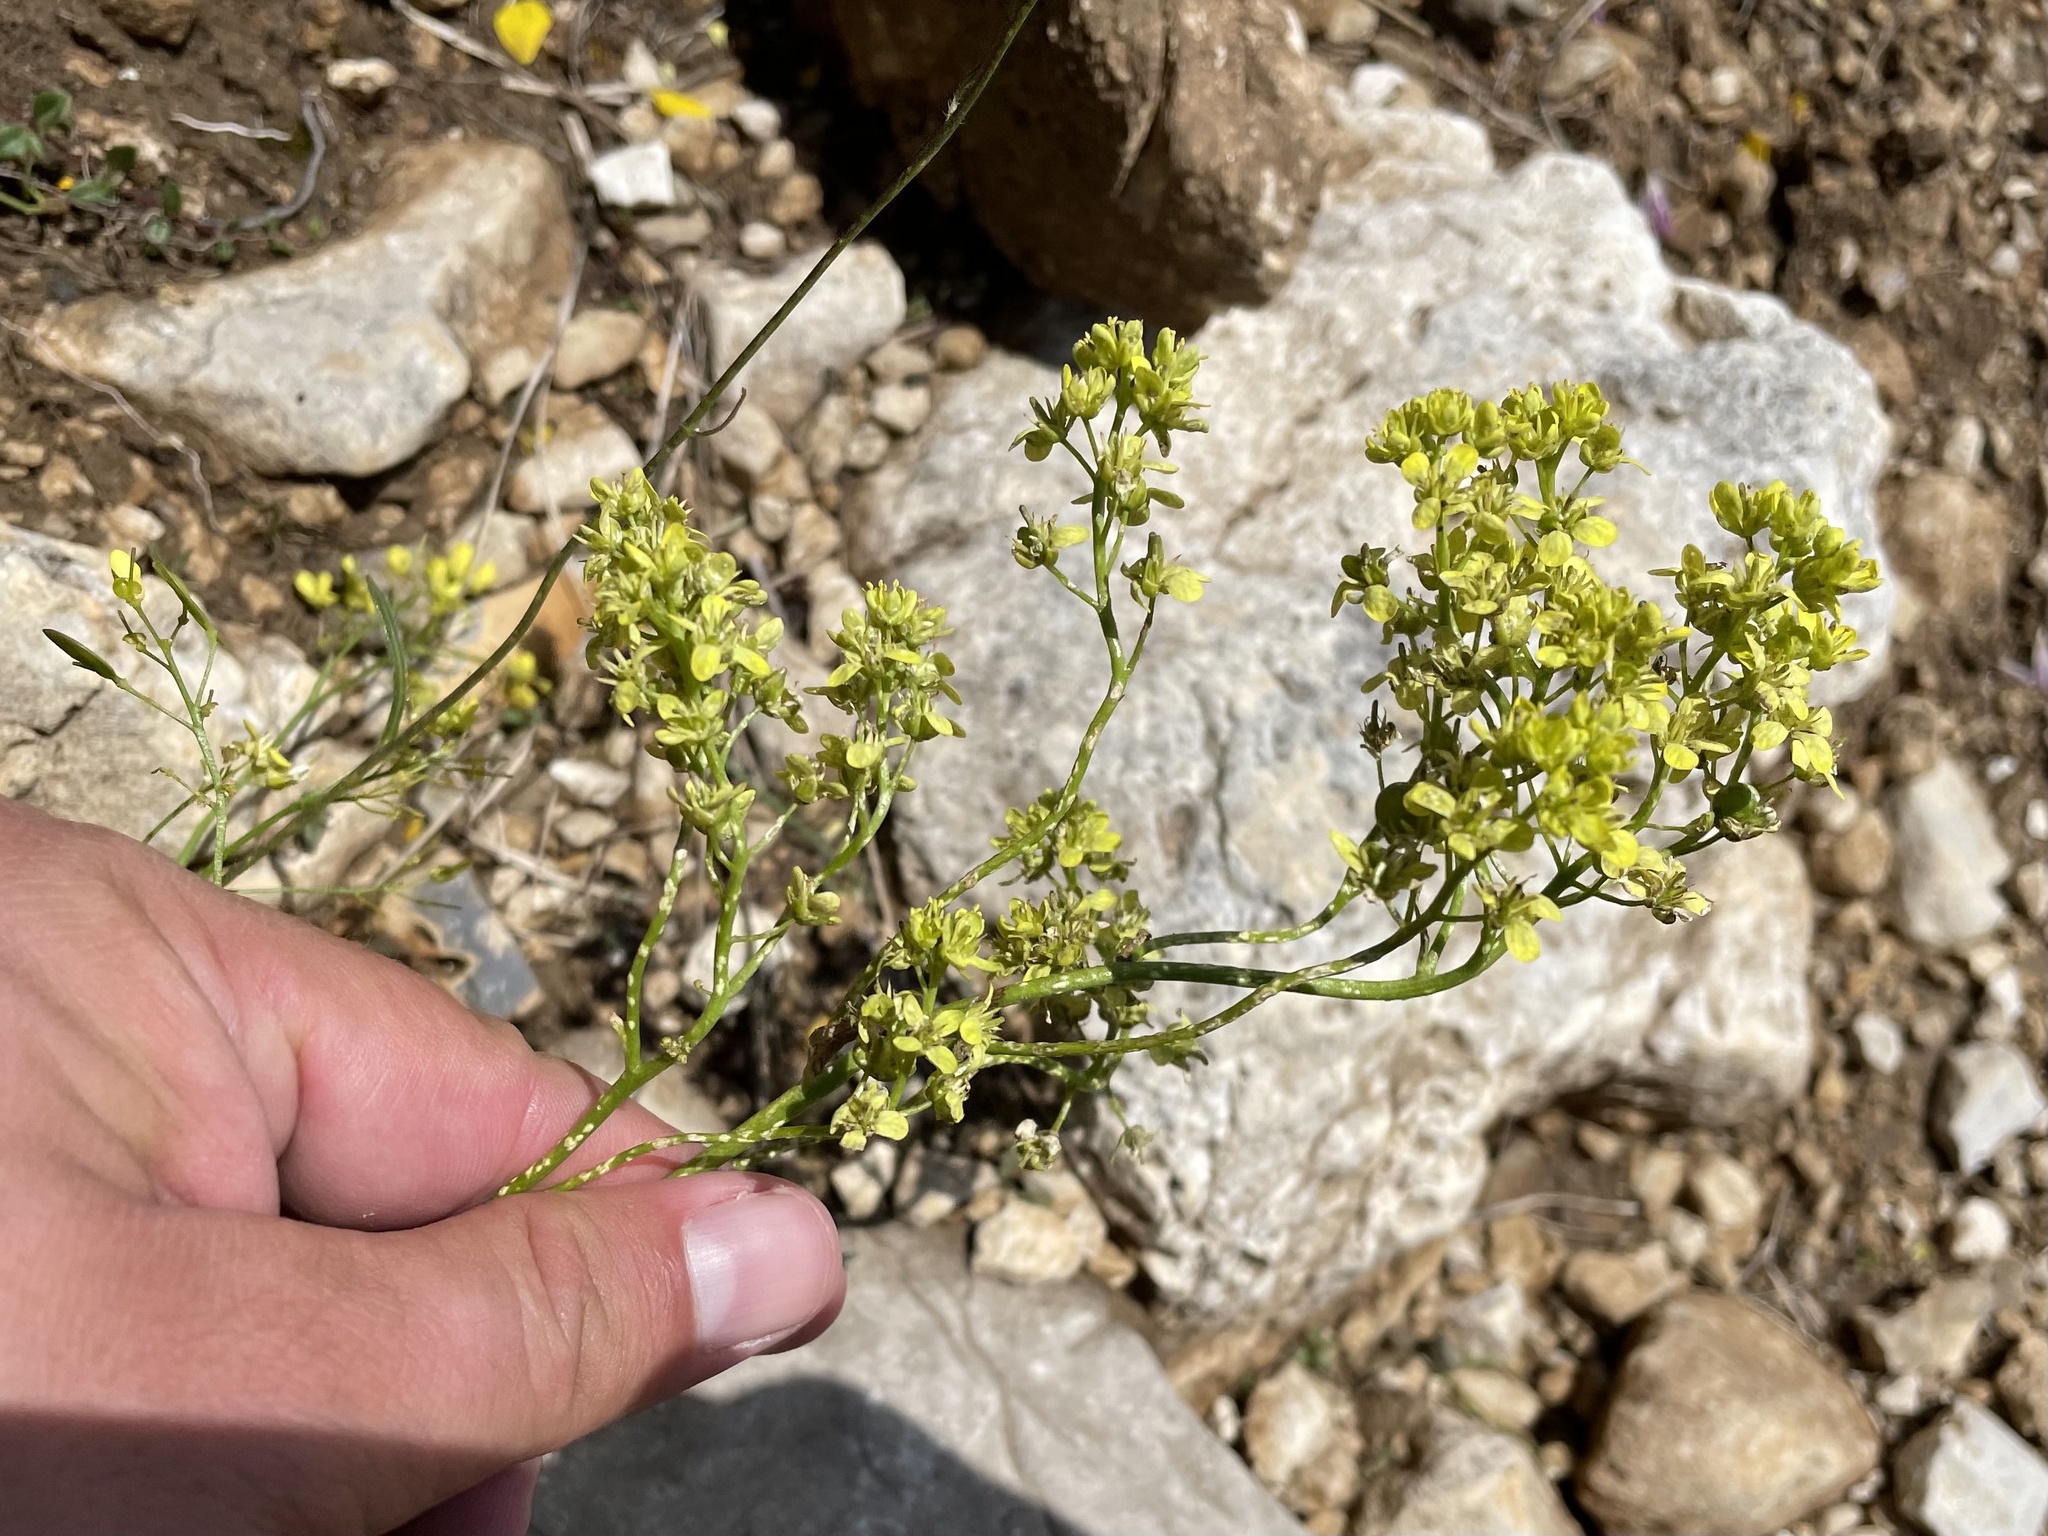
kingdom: Plantae
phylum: Tracheophyta
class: Magnoliopsida
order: Brassicales
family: Brassicaceae
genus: Biscutella
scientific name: Biscutella laevigata
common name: Buckler mustard
